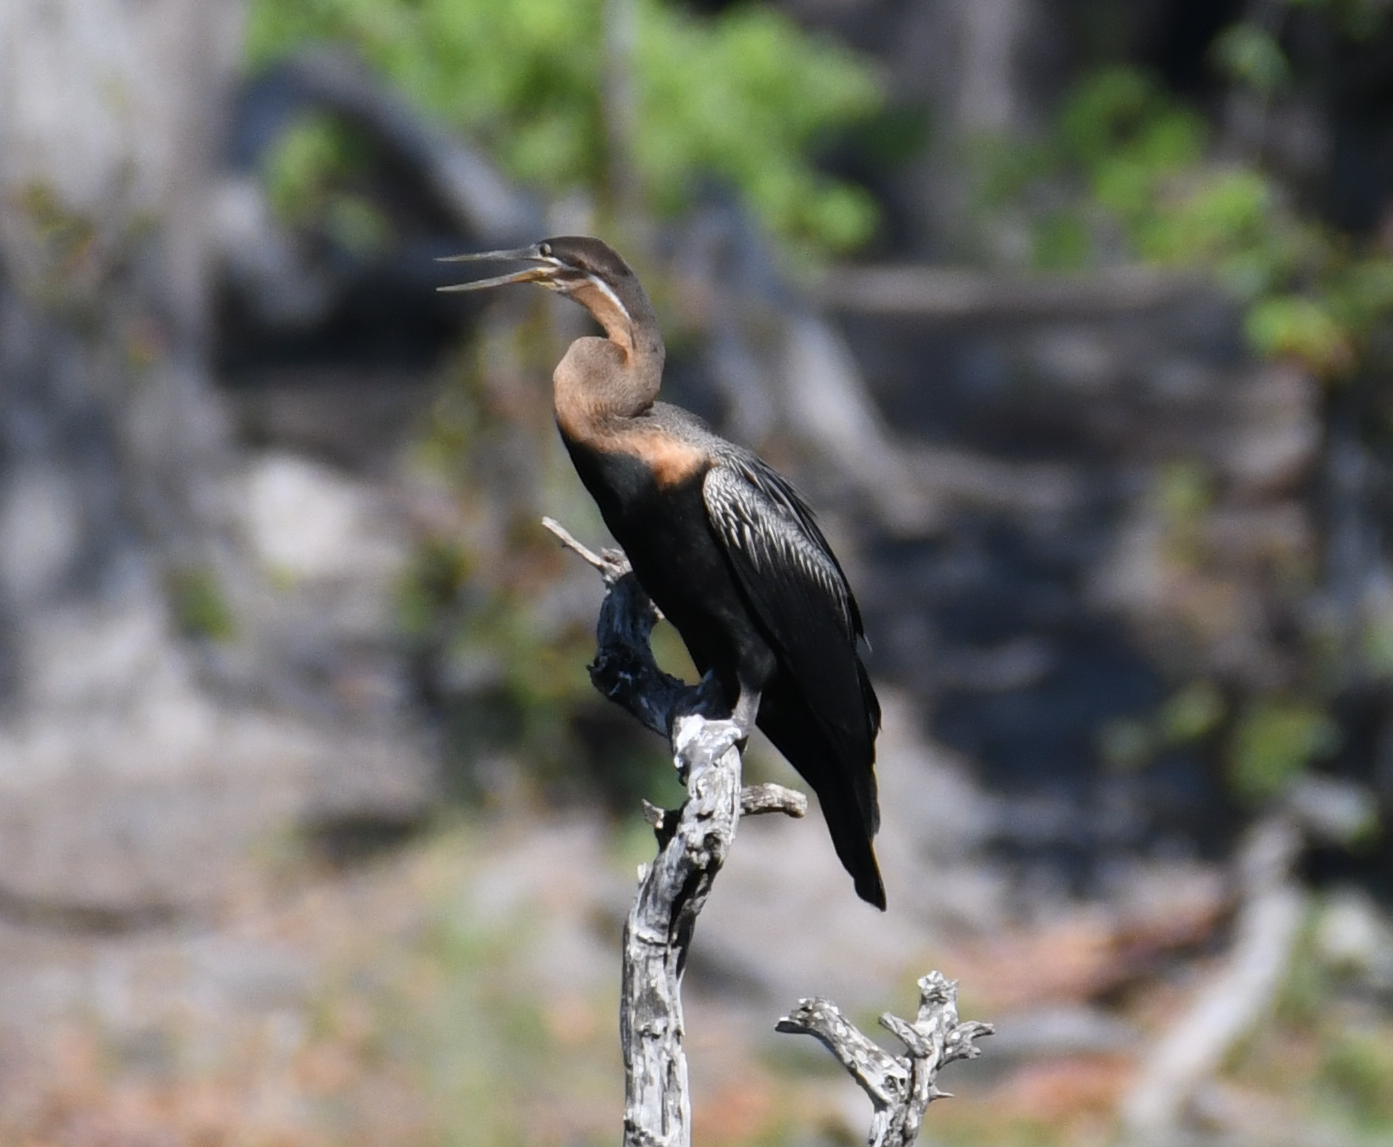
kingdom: Animalia
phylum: Chordata
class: Aves
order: Suliformes
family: Anhingidae
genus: Anhinga
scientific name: Anhinga rufa
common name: African darter
